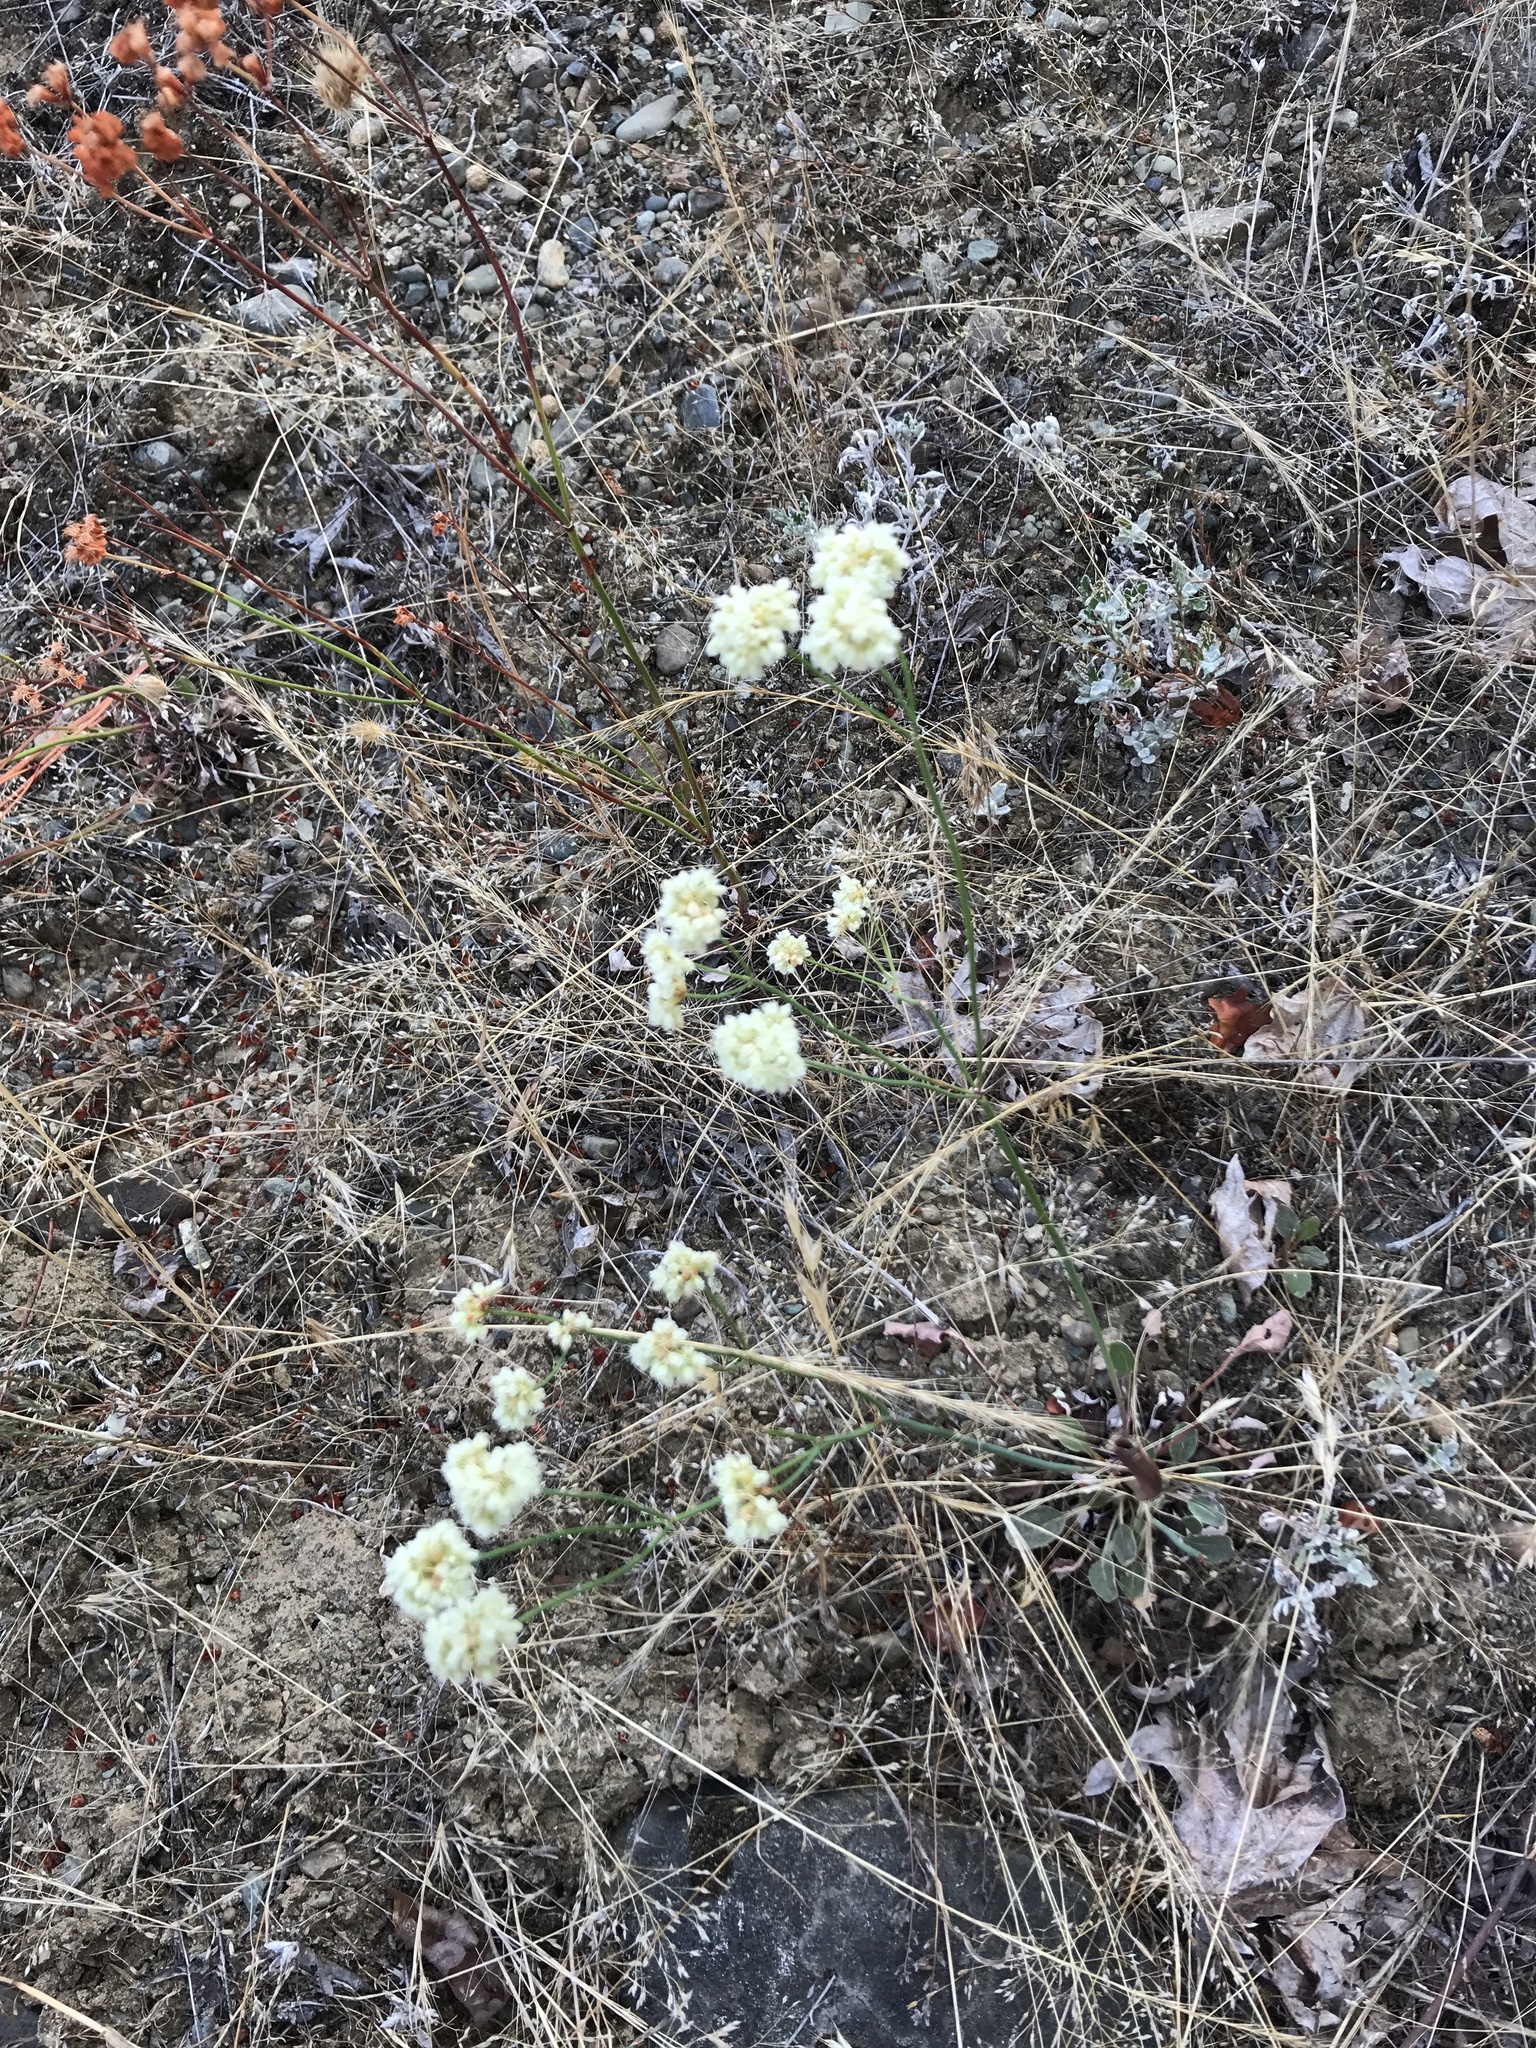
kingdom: Plantae
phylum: Tracheophyta
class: Magnoliopsida
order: Caryophyllales
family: Polygonaceae
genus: Eriogonum
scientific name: Eriogonum nudum
